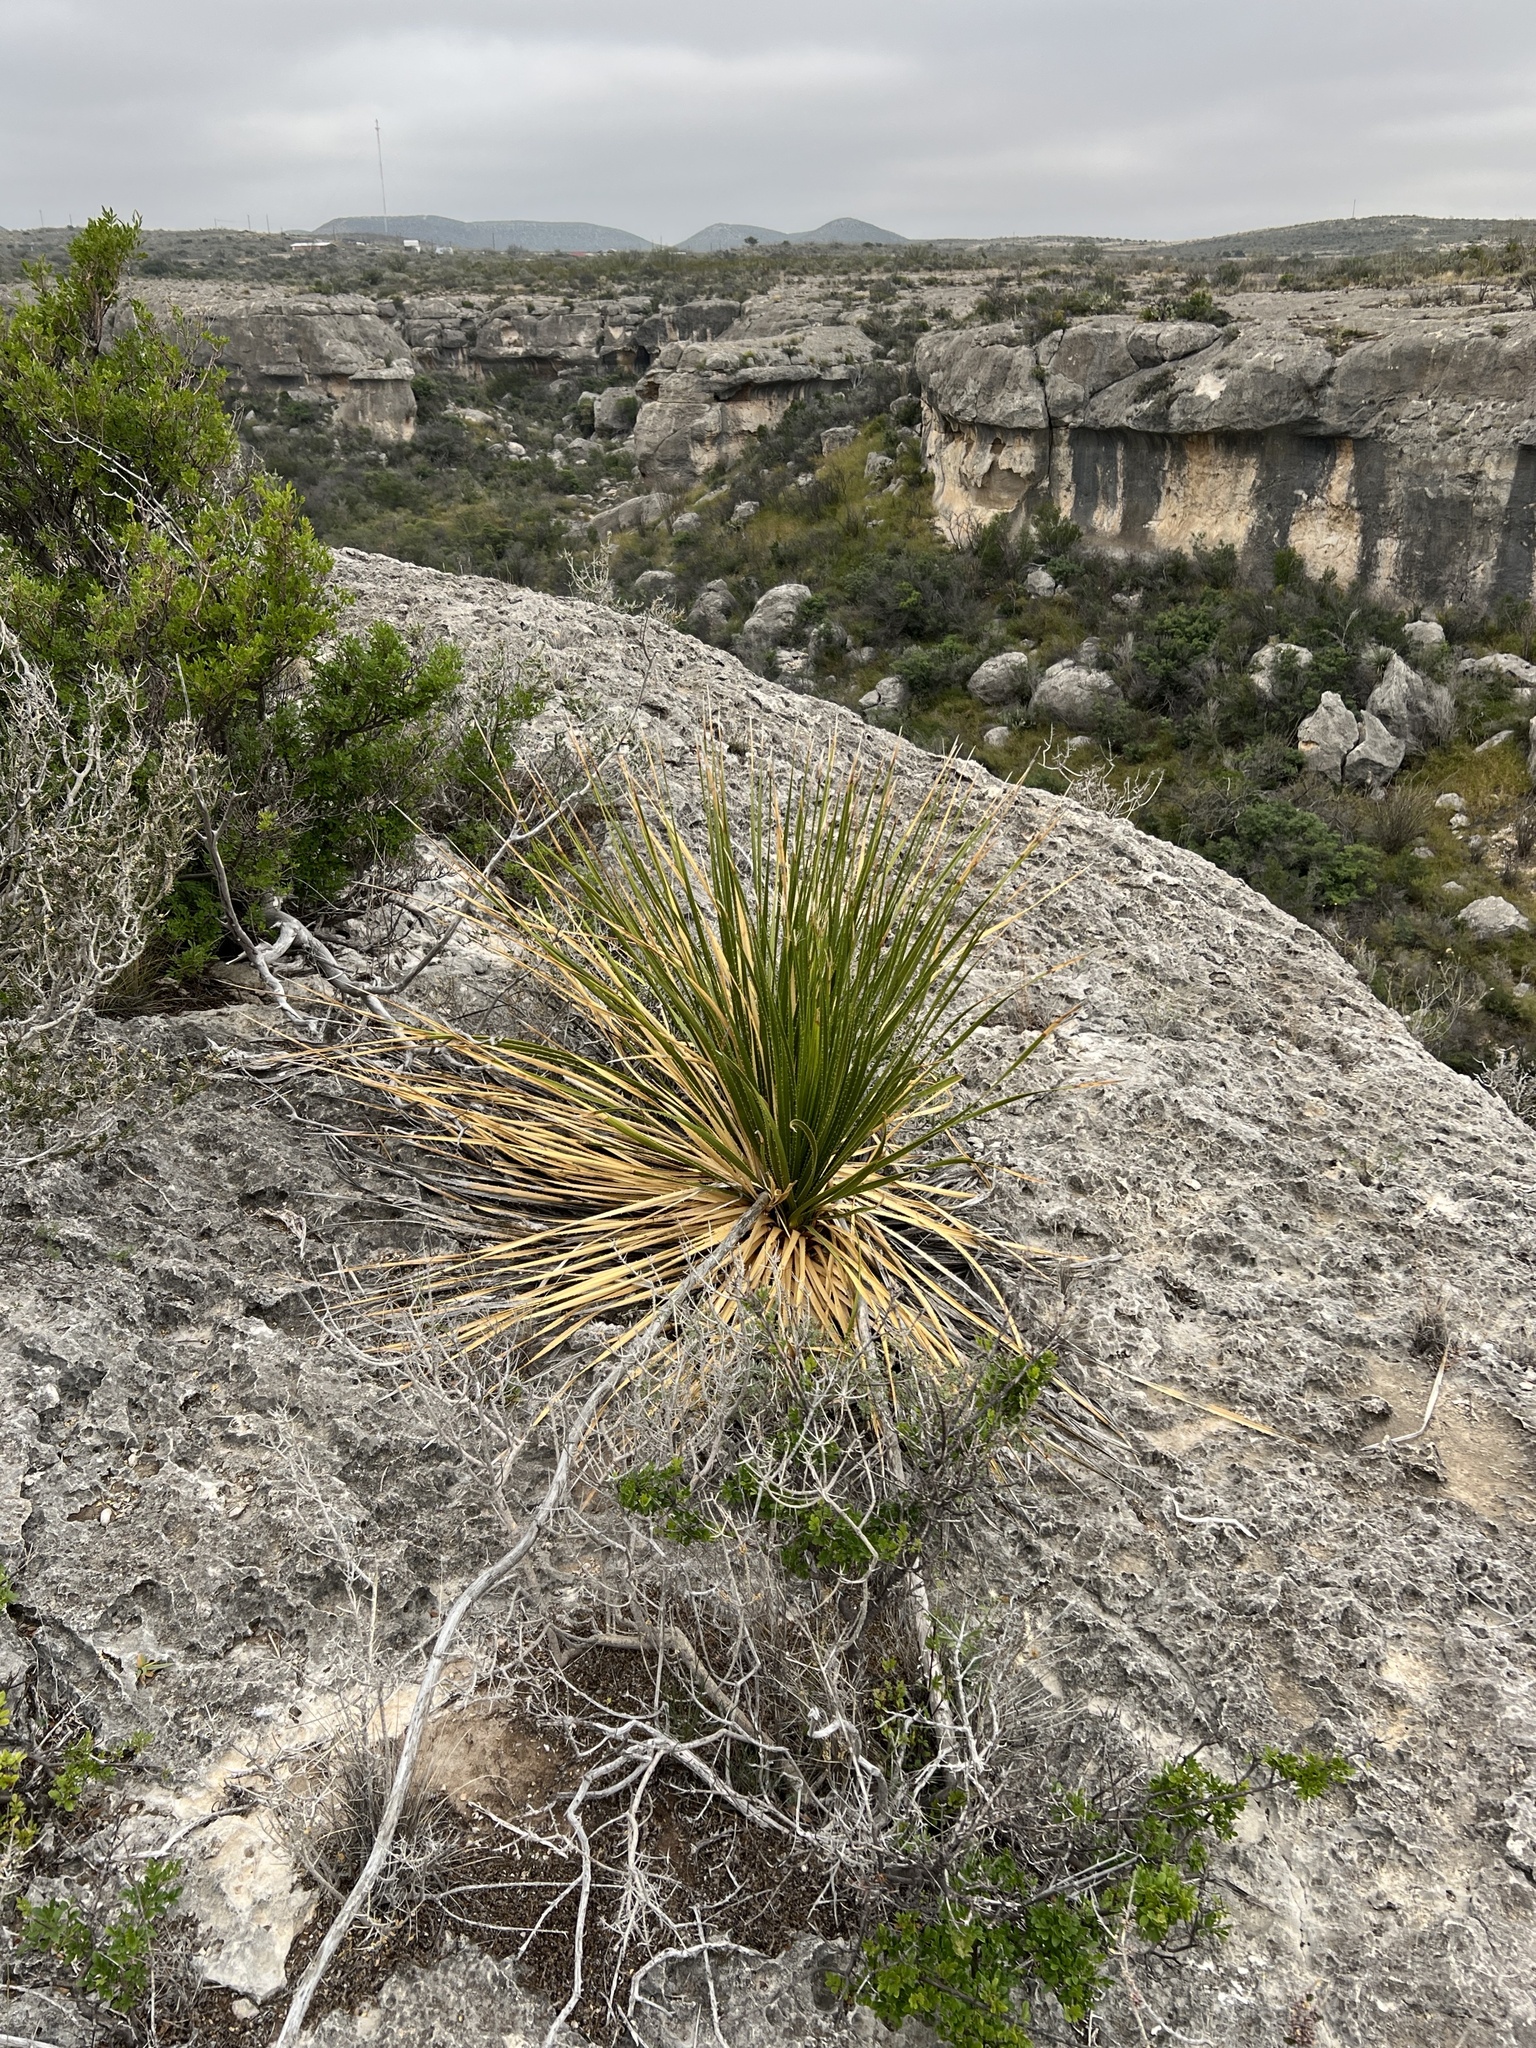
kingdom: Plantae
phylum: Tracheophyta
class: Liliopsida
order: Asparagales
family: Asparagaceae
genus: Dasylirion
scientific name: Dasylirion texanum
